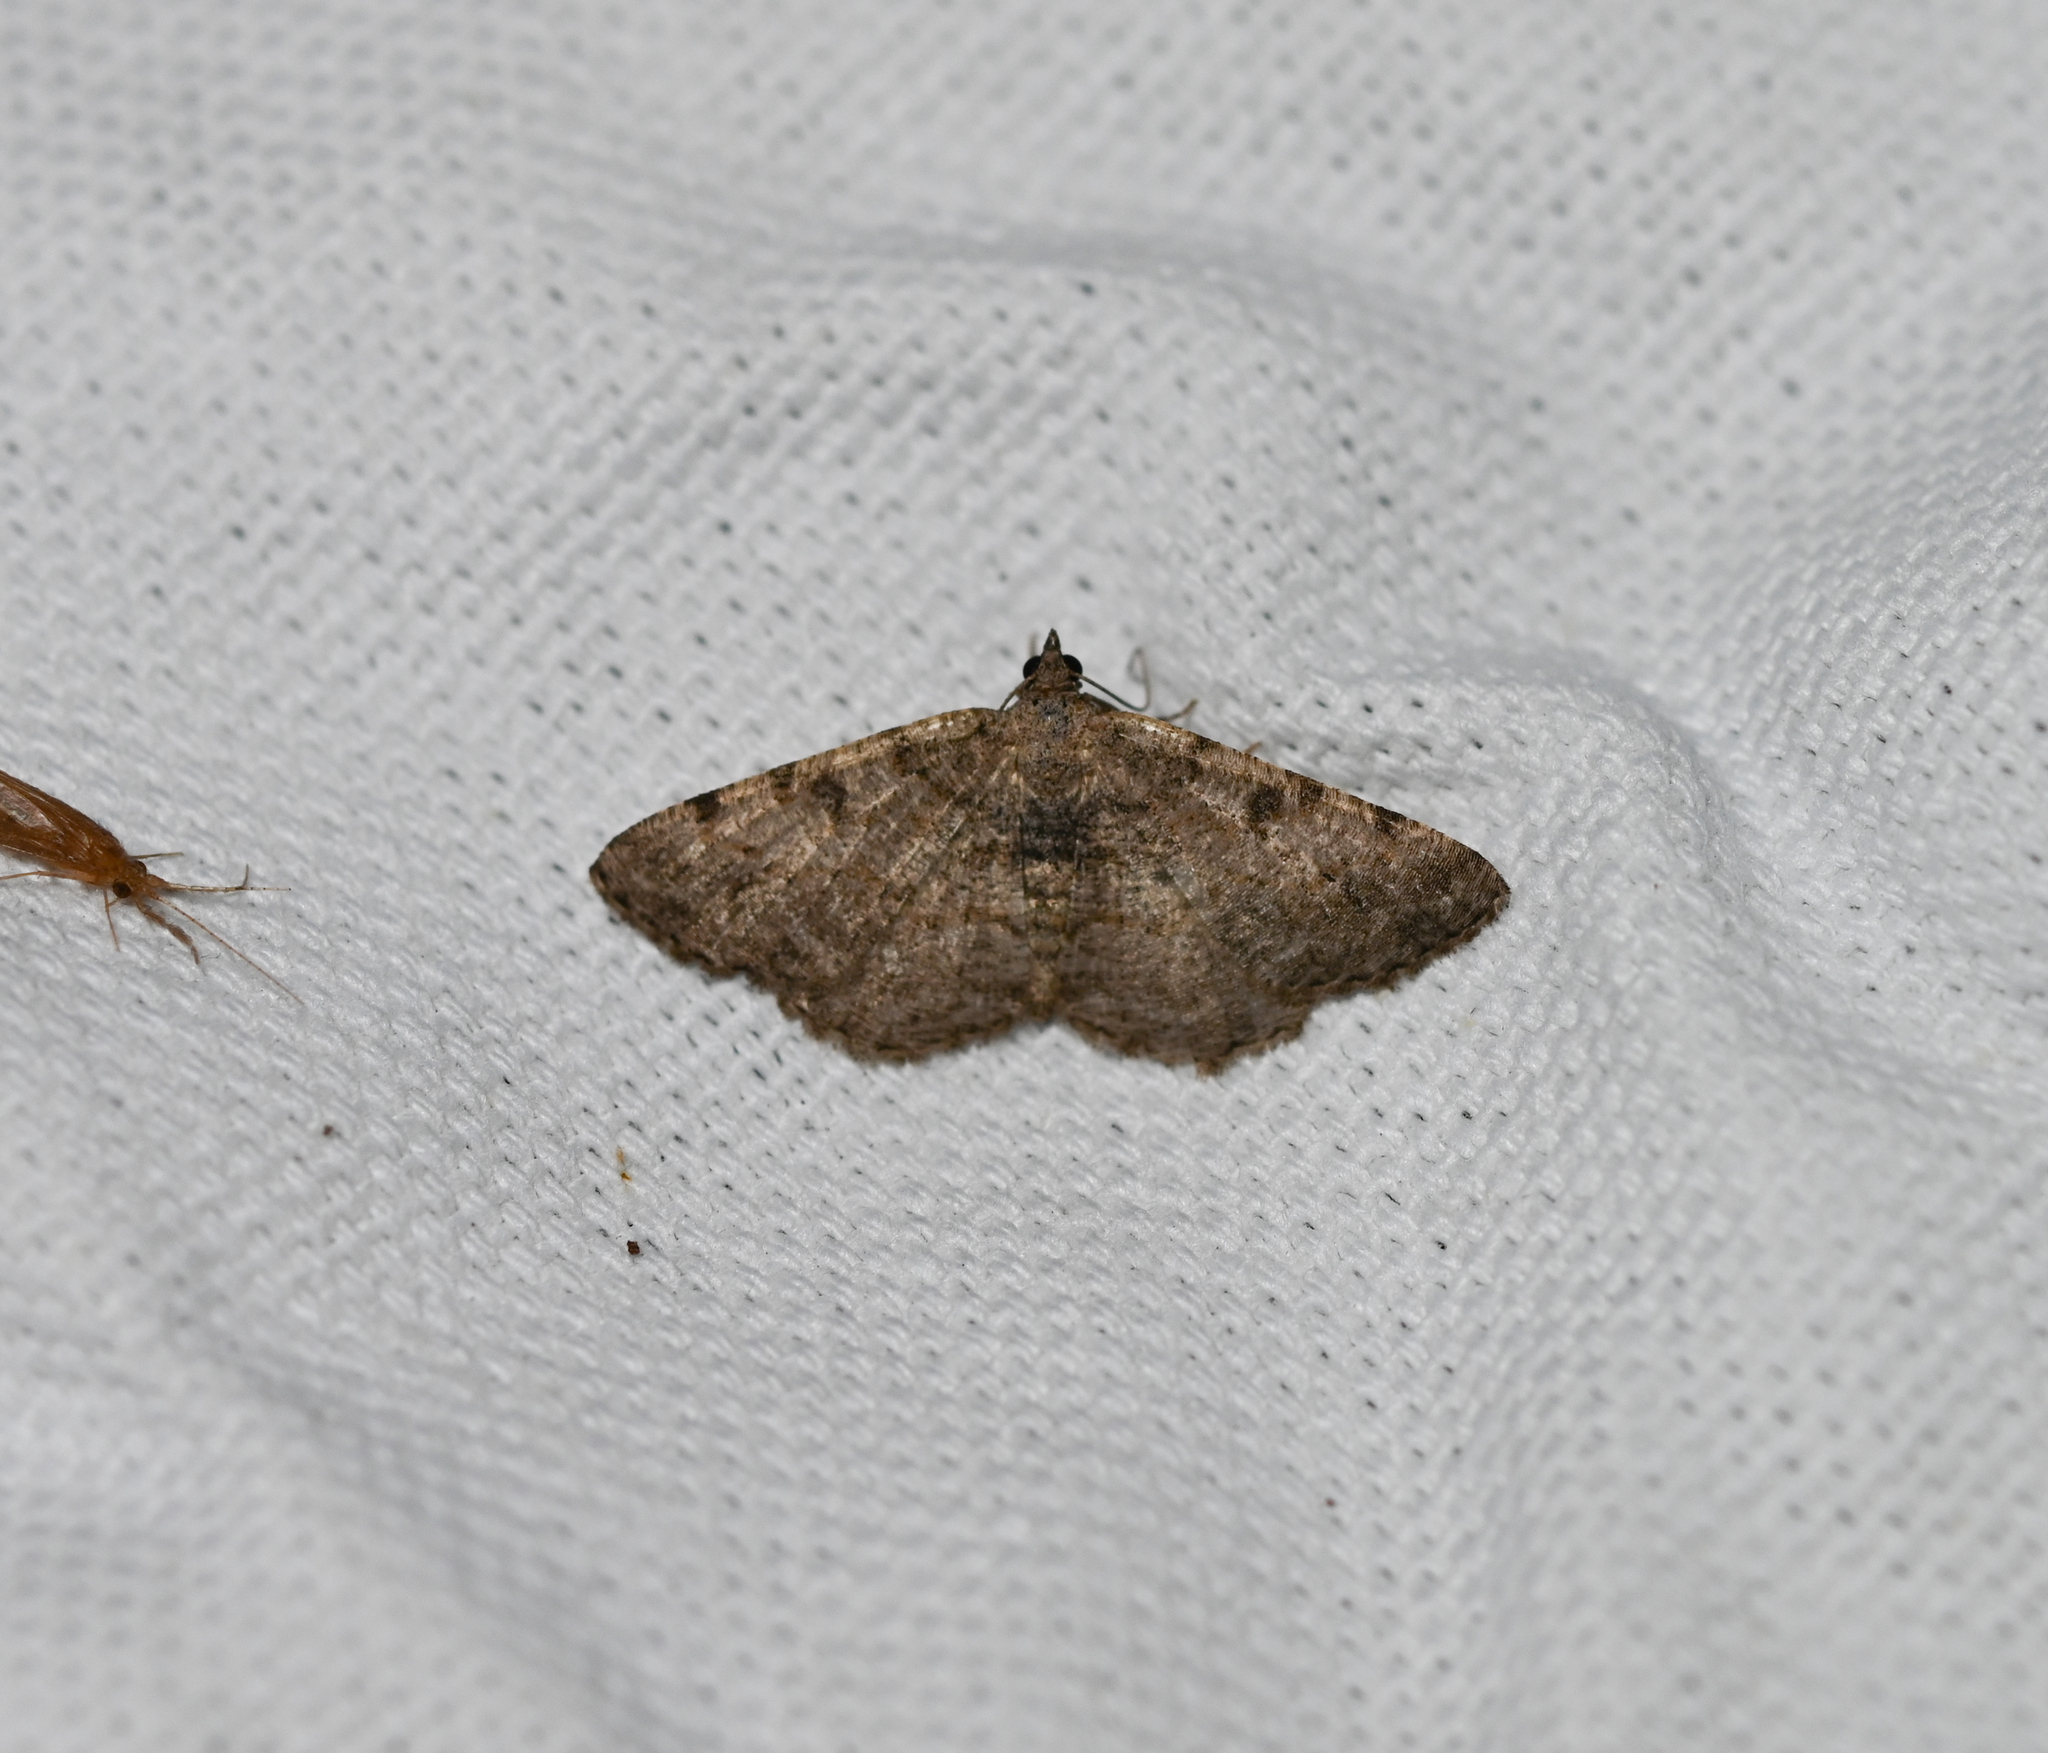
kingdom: Animalia
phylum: Arthropoda
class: Insecta
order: Lepidoptera
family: Geometridae
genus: Digrammia
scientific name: Digrammia gnophosaria
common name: Hollow-spotted angle
